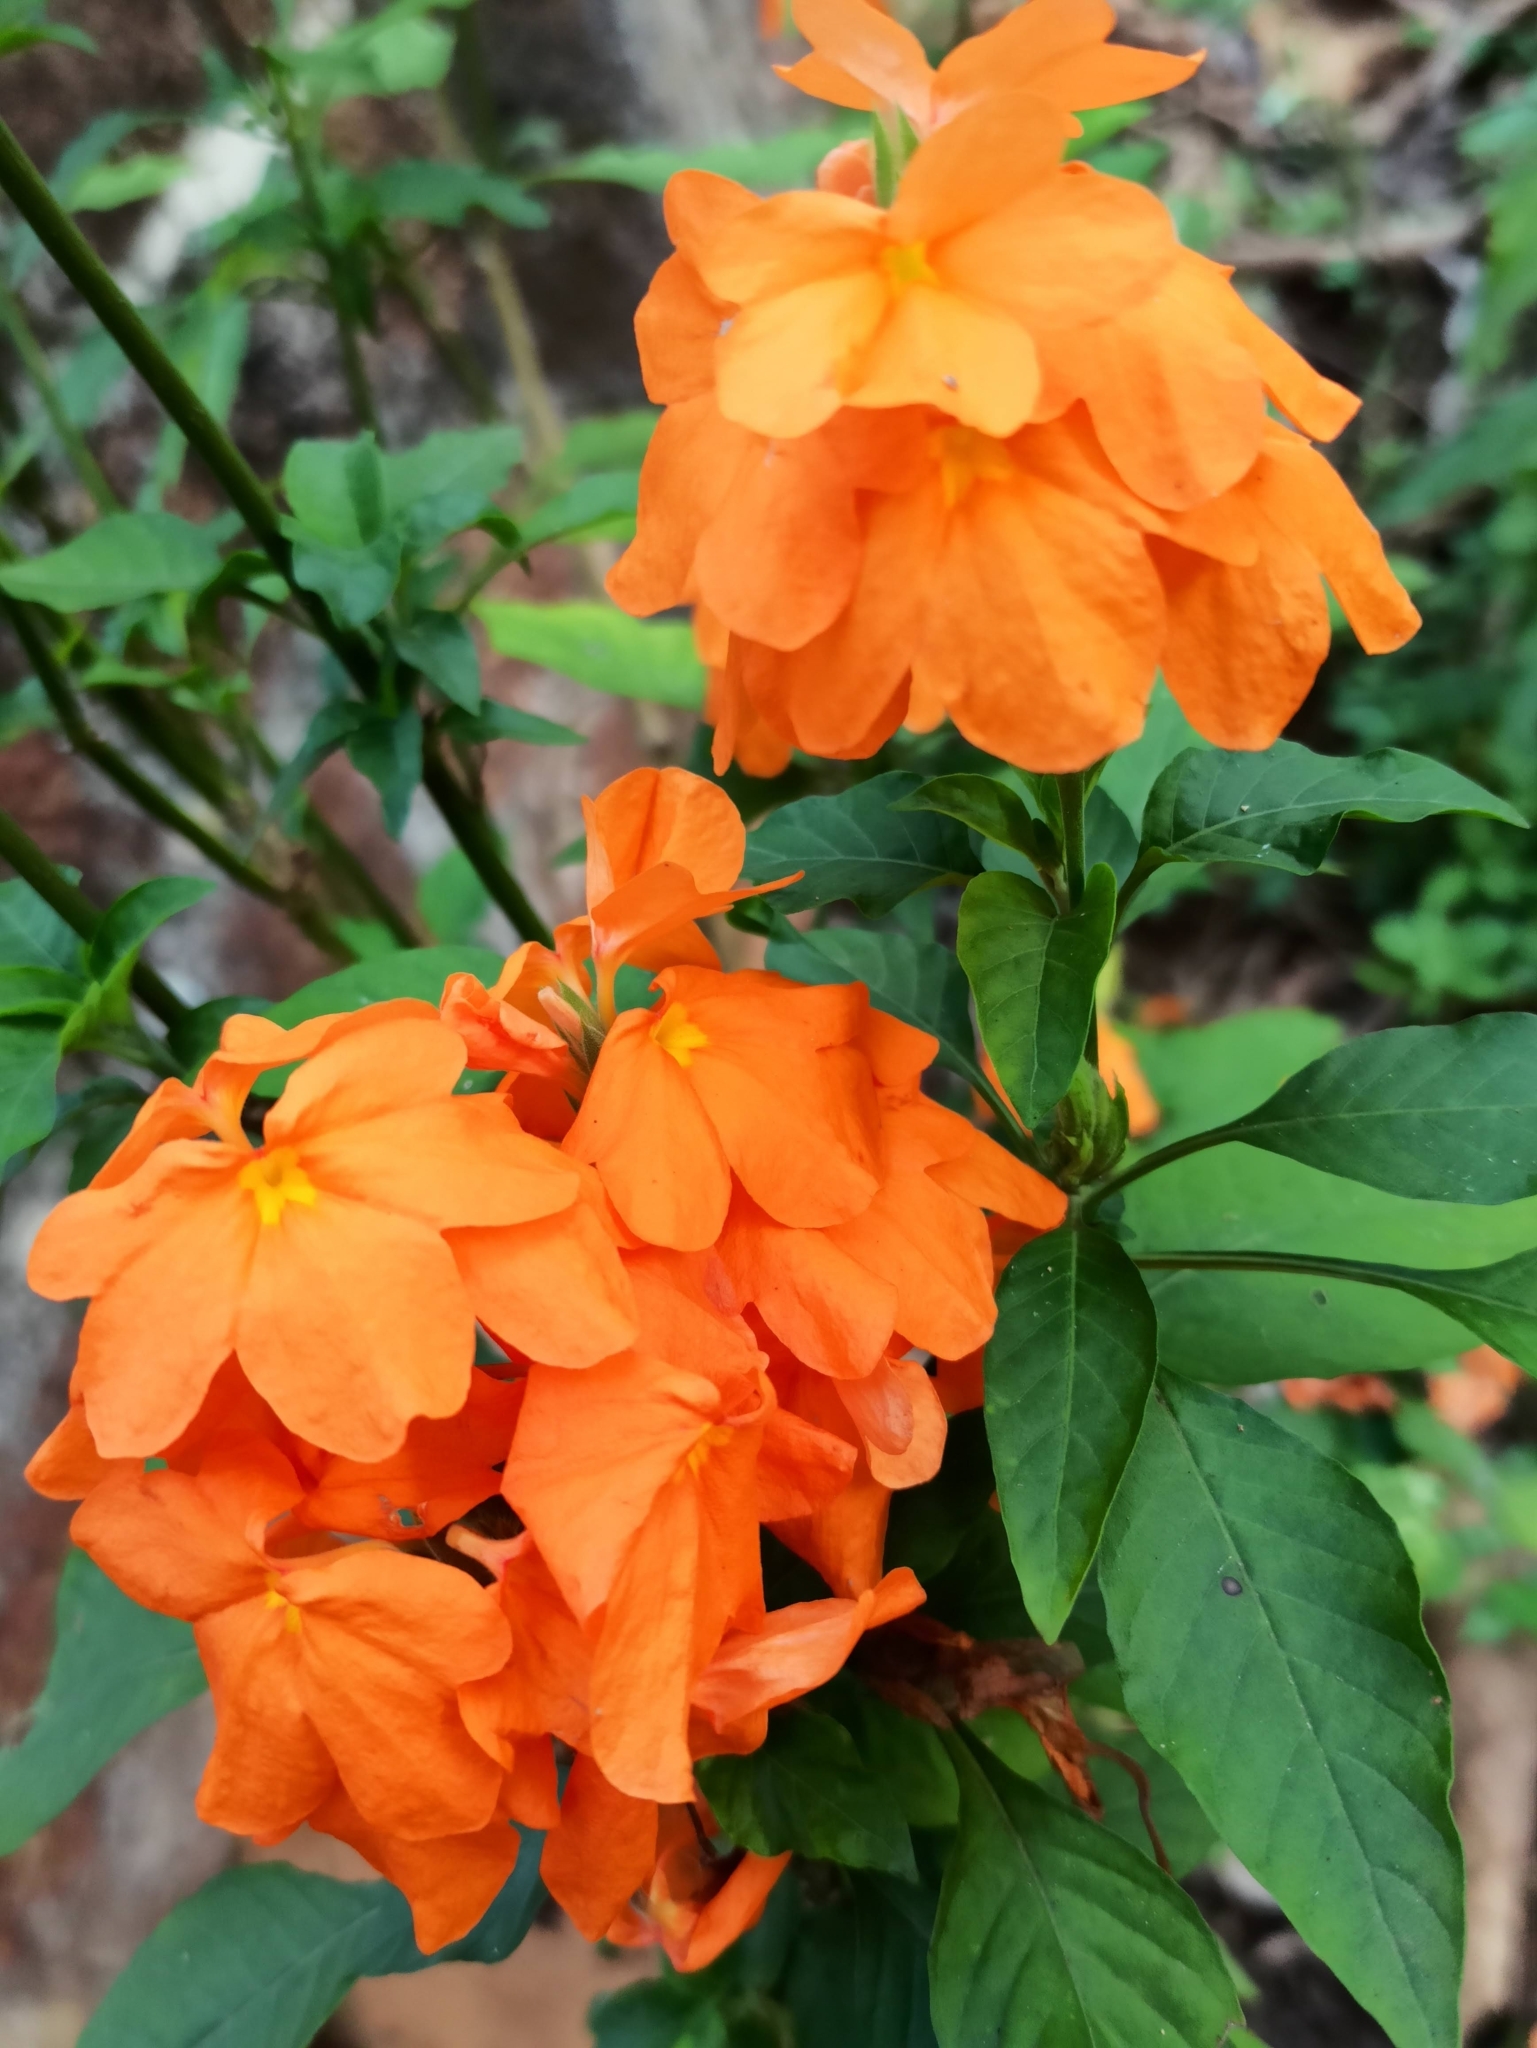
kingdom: Plantae
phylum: Tracheophyta
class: Magnoliopsida
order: Lamiales
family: Acanthaceae
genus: Crossandra
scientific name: Crossandra infundibuliformis
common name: Firecracker-flower
